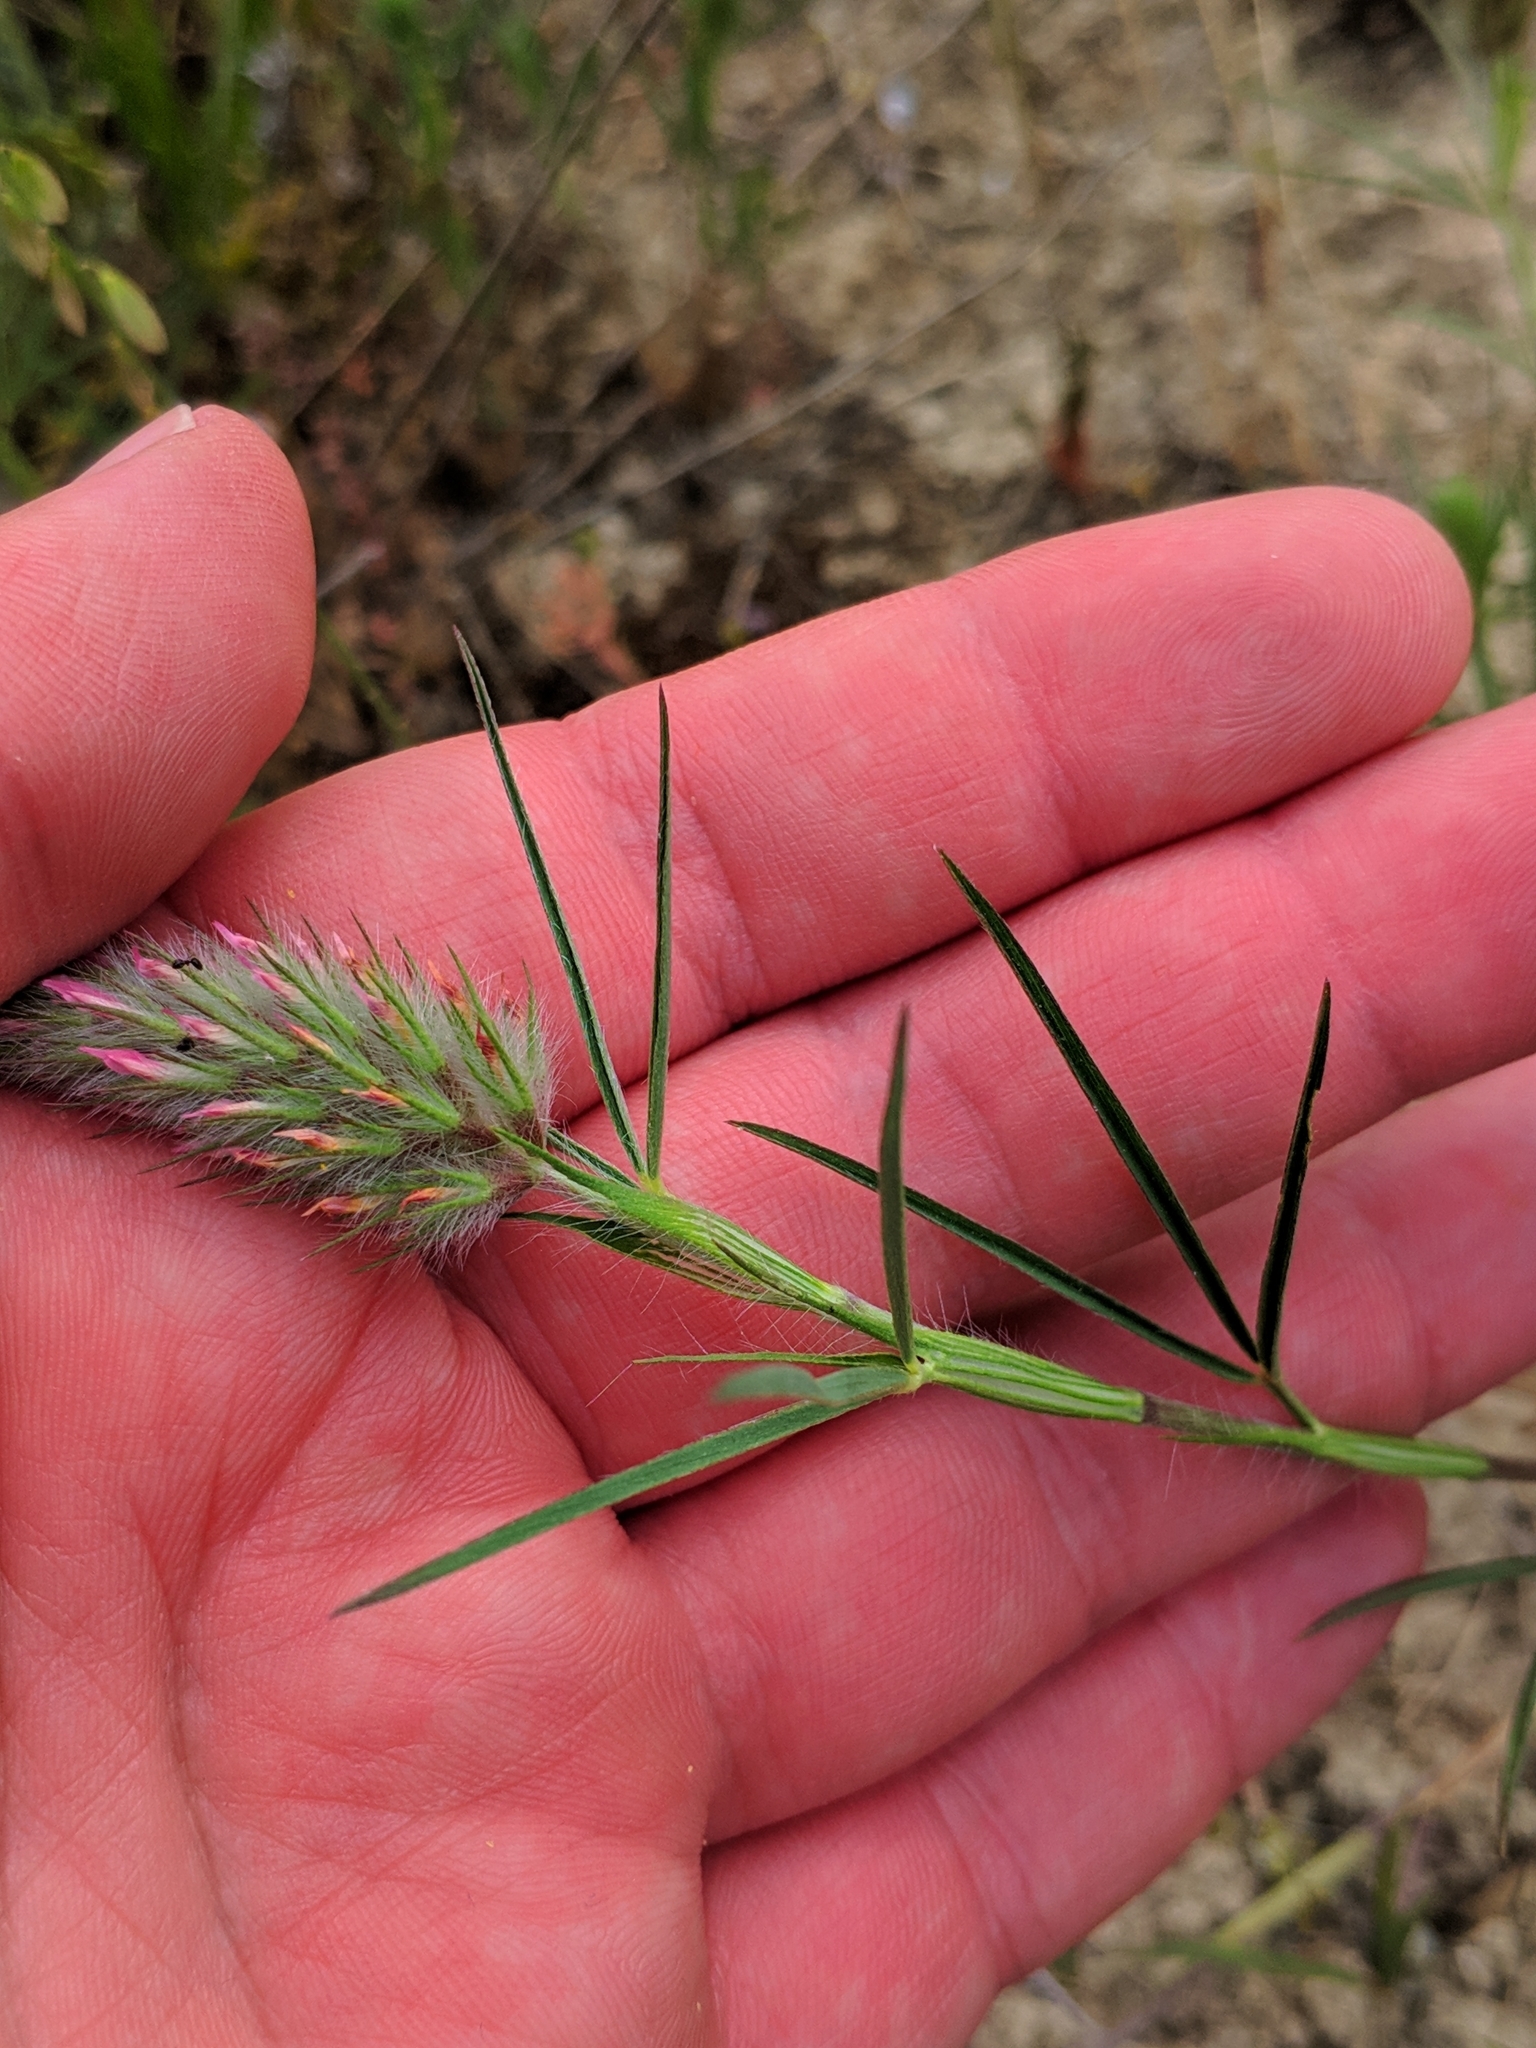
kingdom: Plantae
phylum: Tracheophyta
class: Magnoliopsida
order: Fabales
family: Fabaceae
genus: Trifolium
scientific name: Trifolium angustifolium
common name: Narrow clover
